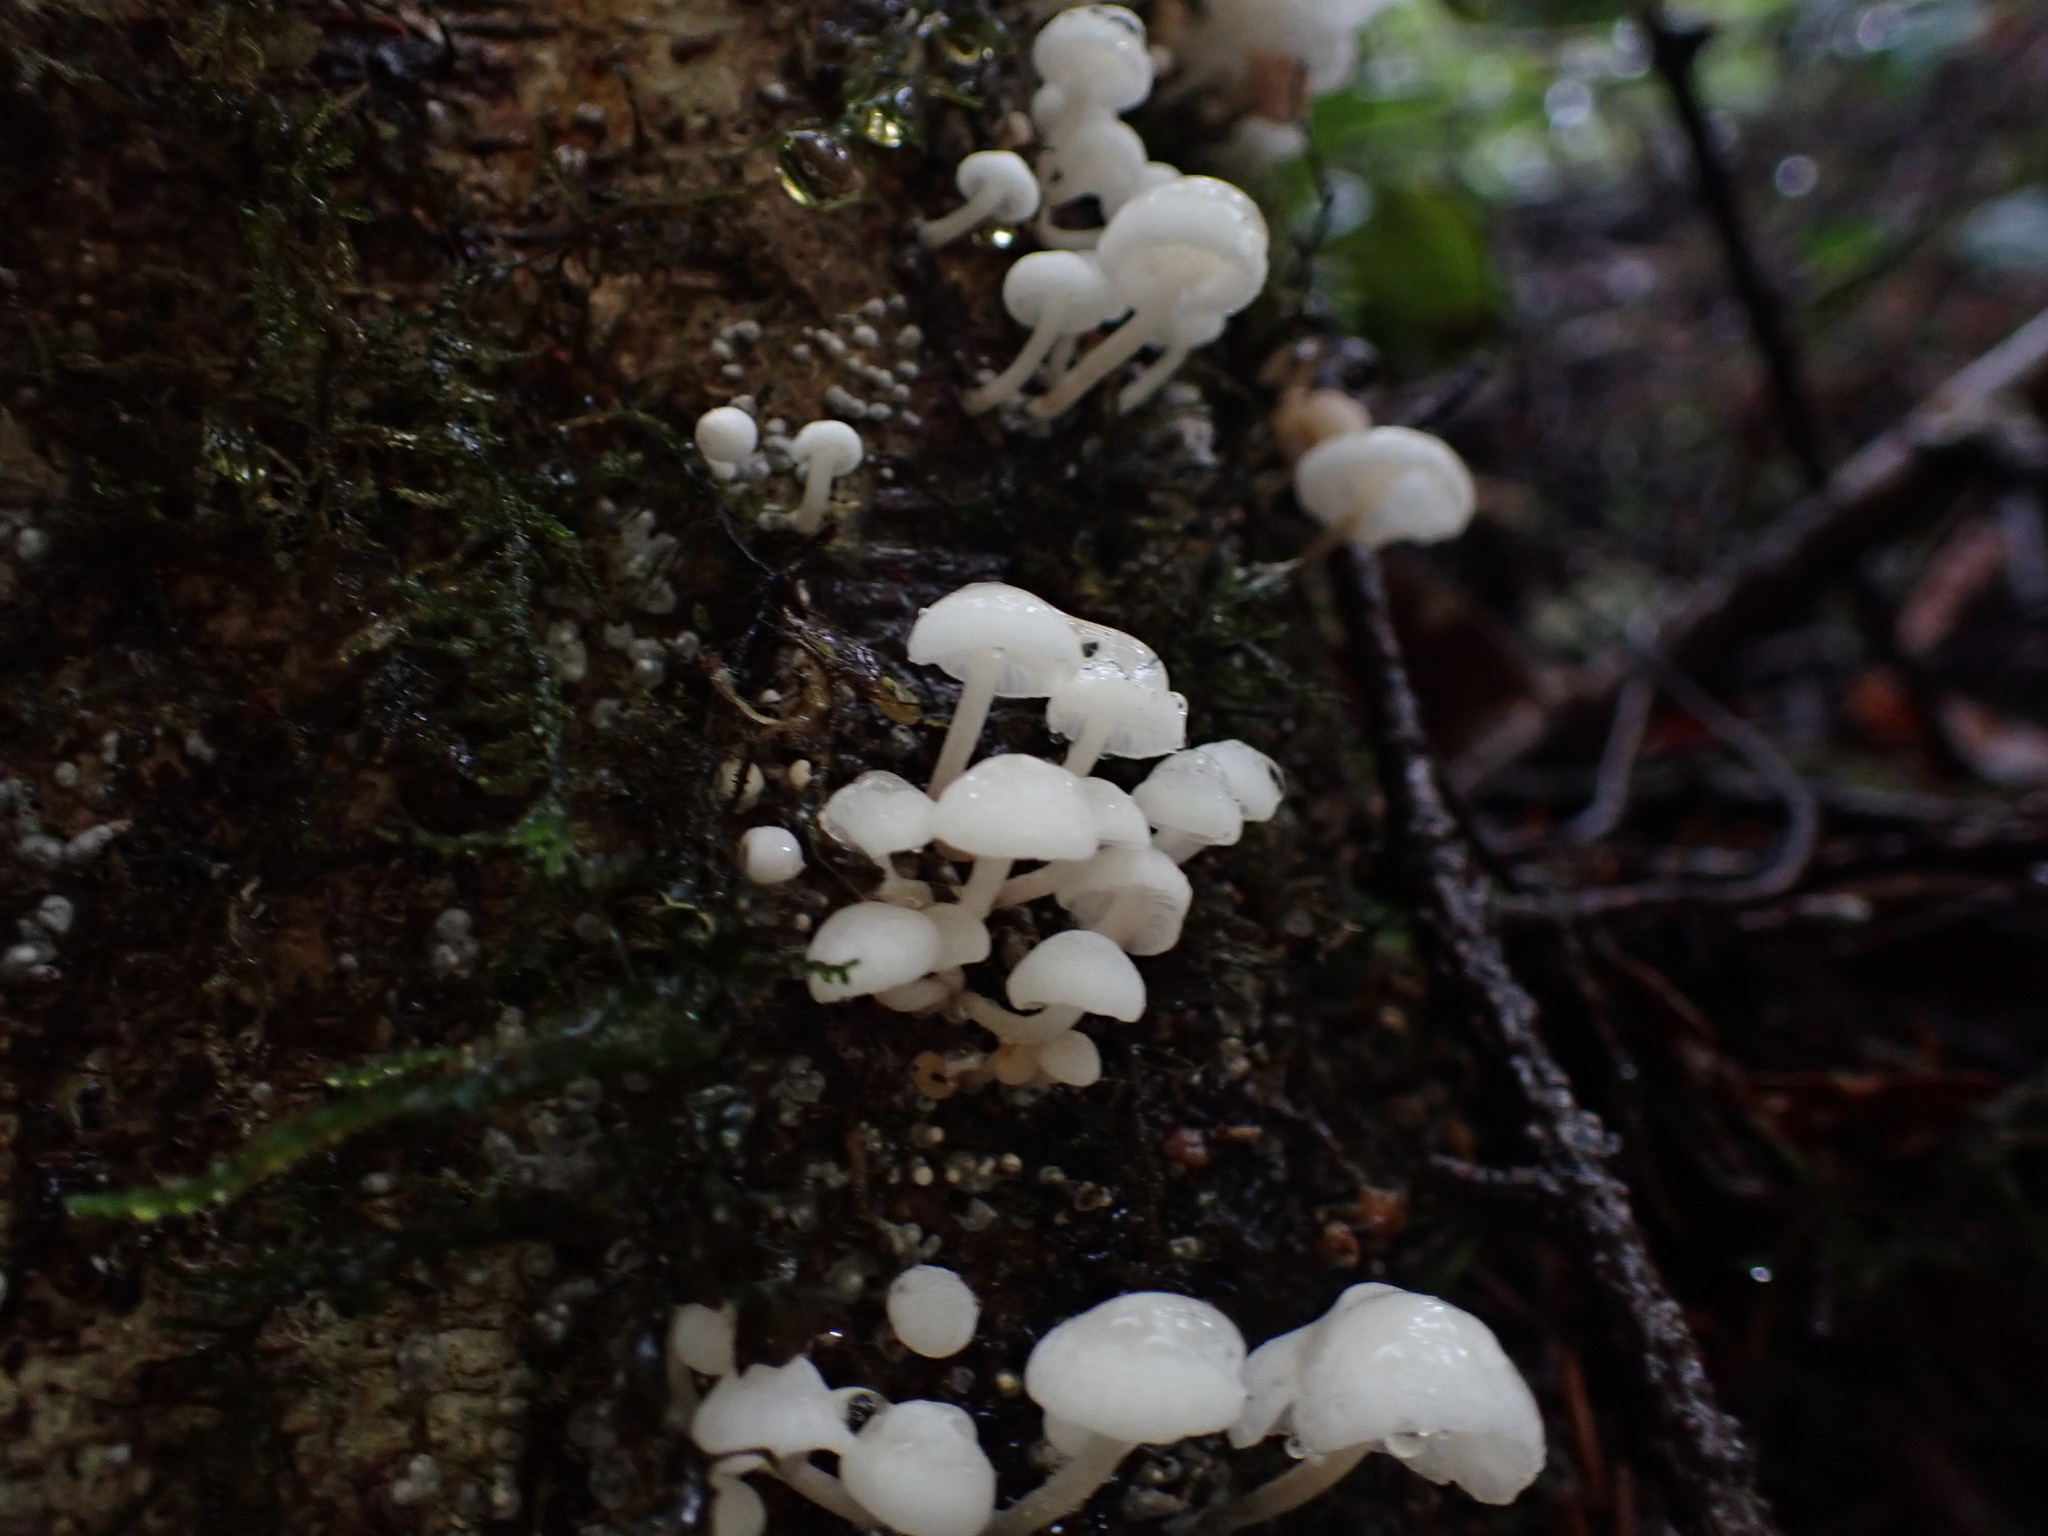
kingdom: Fungi
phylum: Basidiomycota
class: Agaricomycetes
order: Agaricales
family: Omphalotaceae
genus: Marasmiellus
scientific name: Marasmiellus candidus
